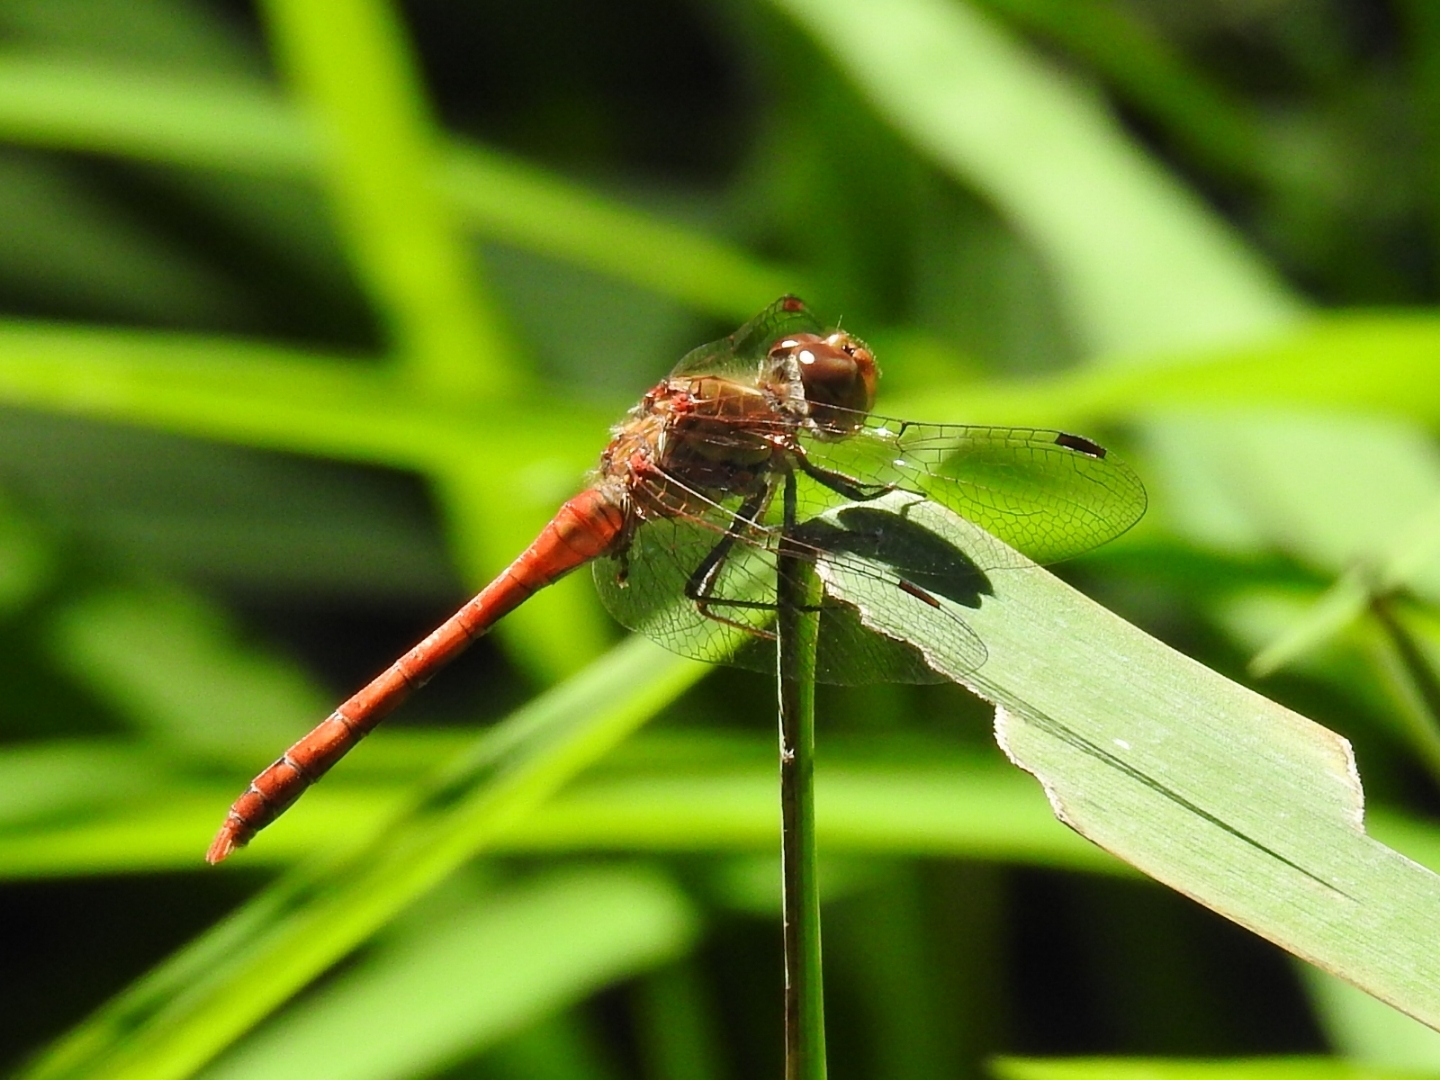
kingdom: Animalia
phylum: Arthropoda
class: Insecta
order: Odonata
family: Libellulidae
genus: Sympetrum
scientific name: Sympetrum striolatum
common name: Common darter
